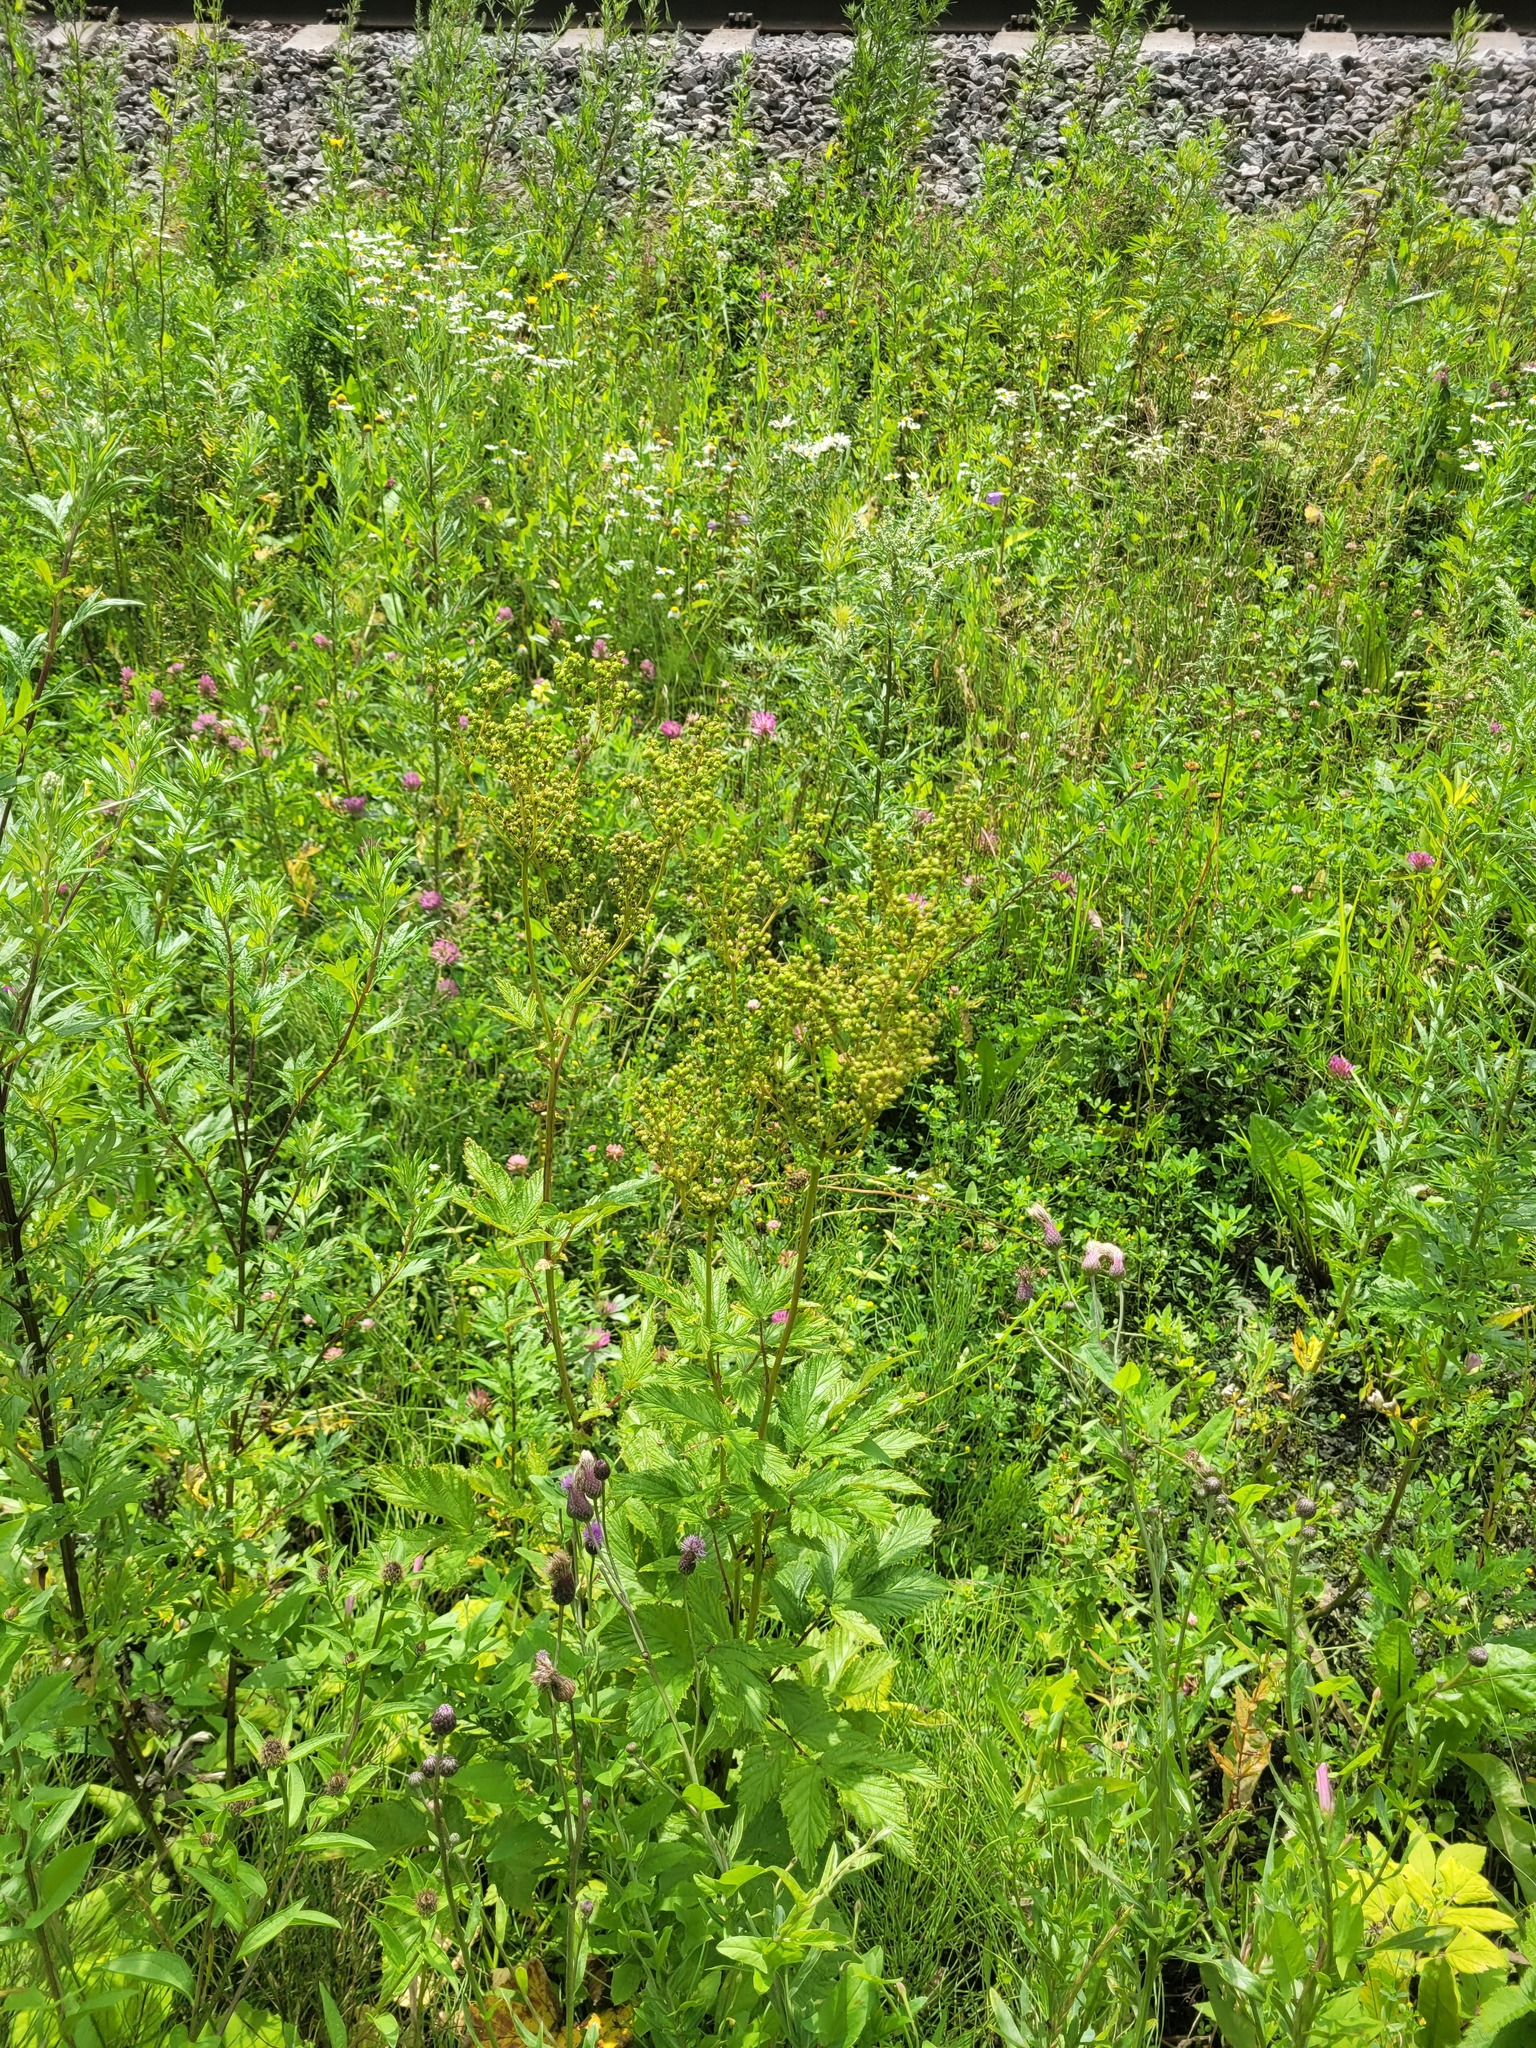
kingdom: Plantae
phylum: Tracheophyta
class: Magnoliopsida
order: Rosales
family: Rosaceae
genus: Filipendula
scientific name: Filipendula ulmaria
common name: Meadowsweet
